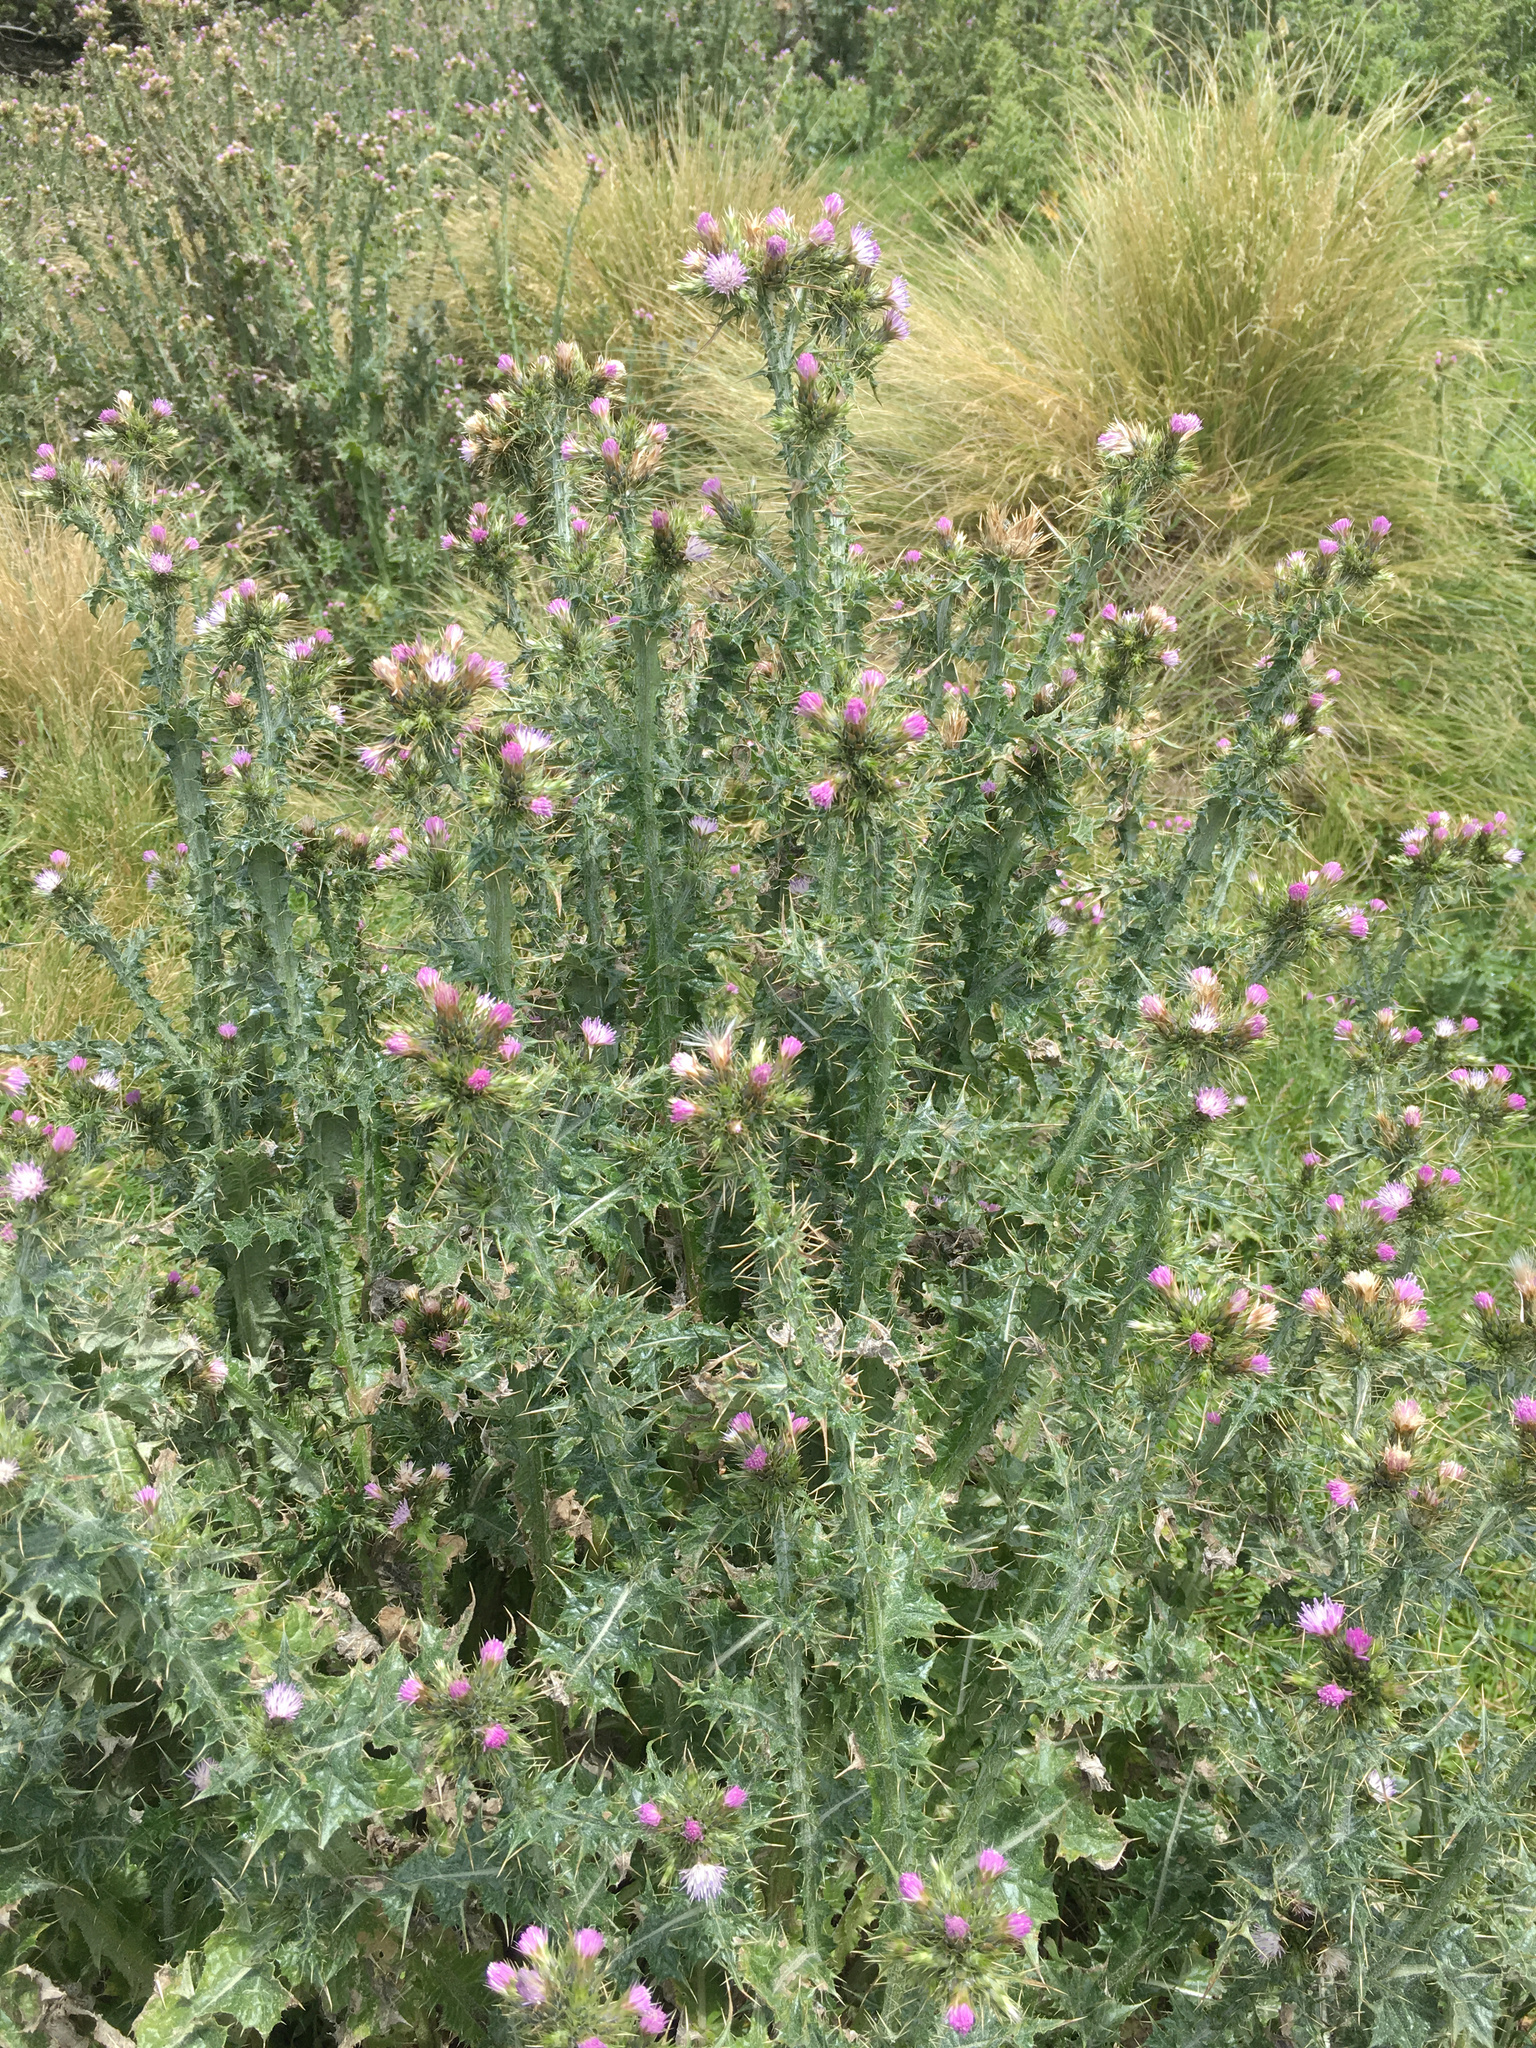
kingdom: Plantae
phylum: Tracheophyta
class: Magnoliopsida
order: Asterales
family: Asteraceae
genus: Carduus
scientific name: Carduus tenuiflorus
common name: Slender thistle
